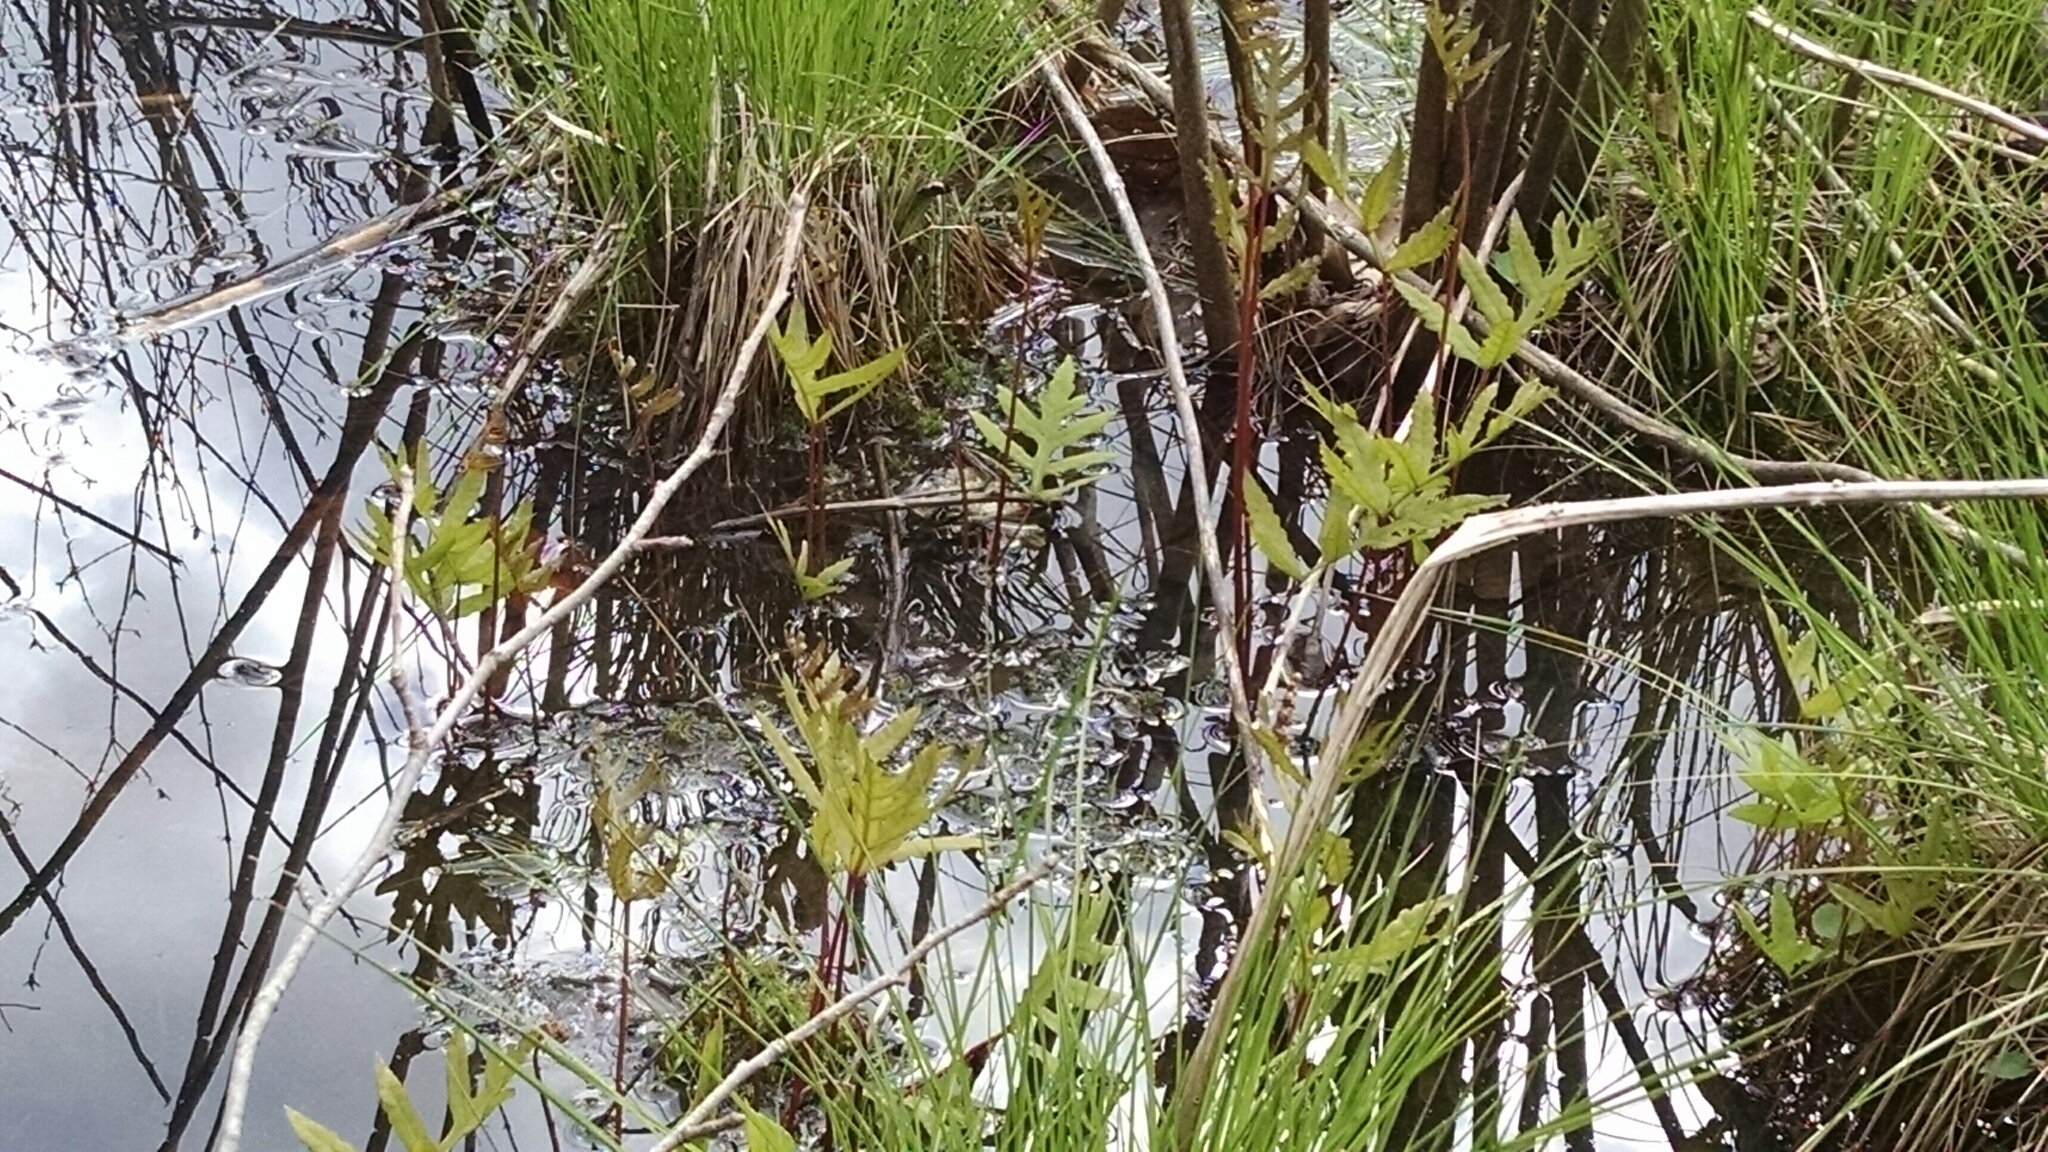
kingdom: Plantae
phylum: Tracheophyta
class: Polypodiopsida
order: Polypodiales
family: Onocleaceae
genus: Onoclea
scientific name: Onoclea sensibilis
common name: Sensitive fern
